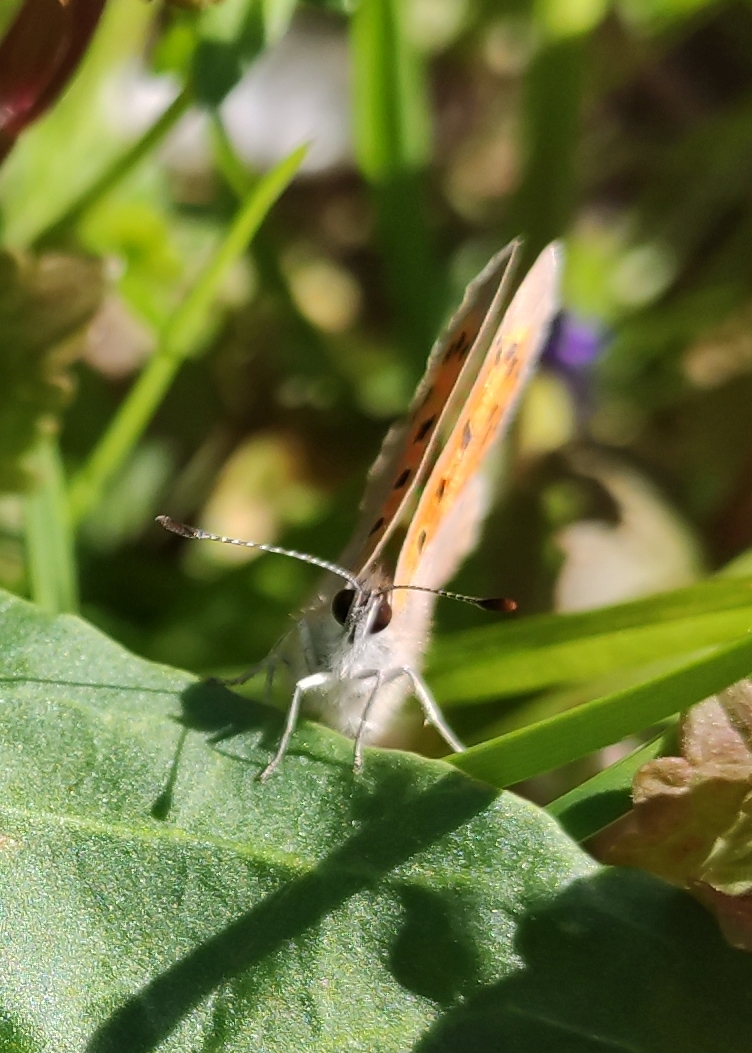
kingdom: Animalia
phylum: Arthropoda
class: Insecta
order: Lepidoptera
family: Lycaenidae
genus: Lycaena
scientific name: Lycaena phlaeas
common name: Small copper
